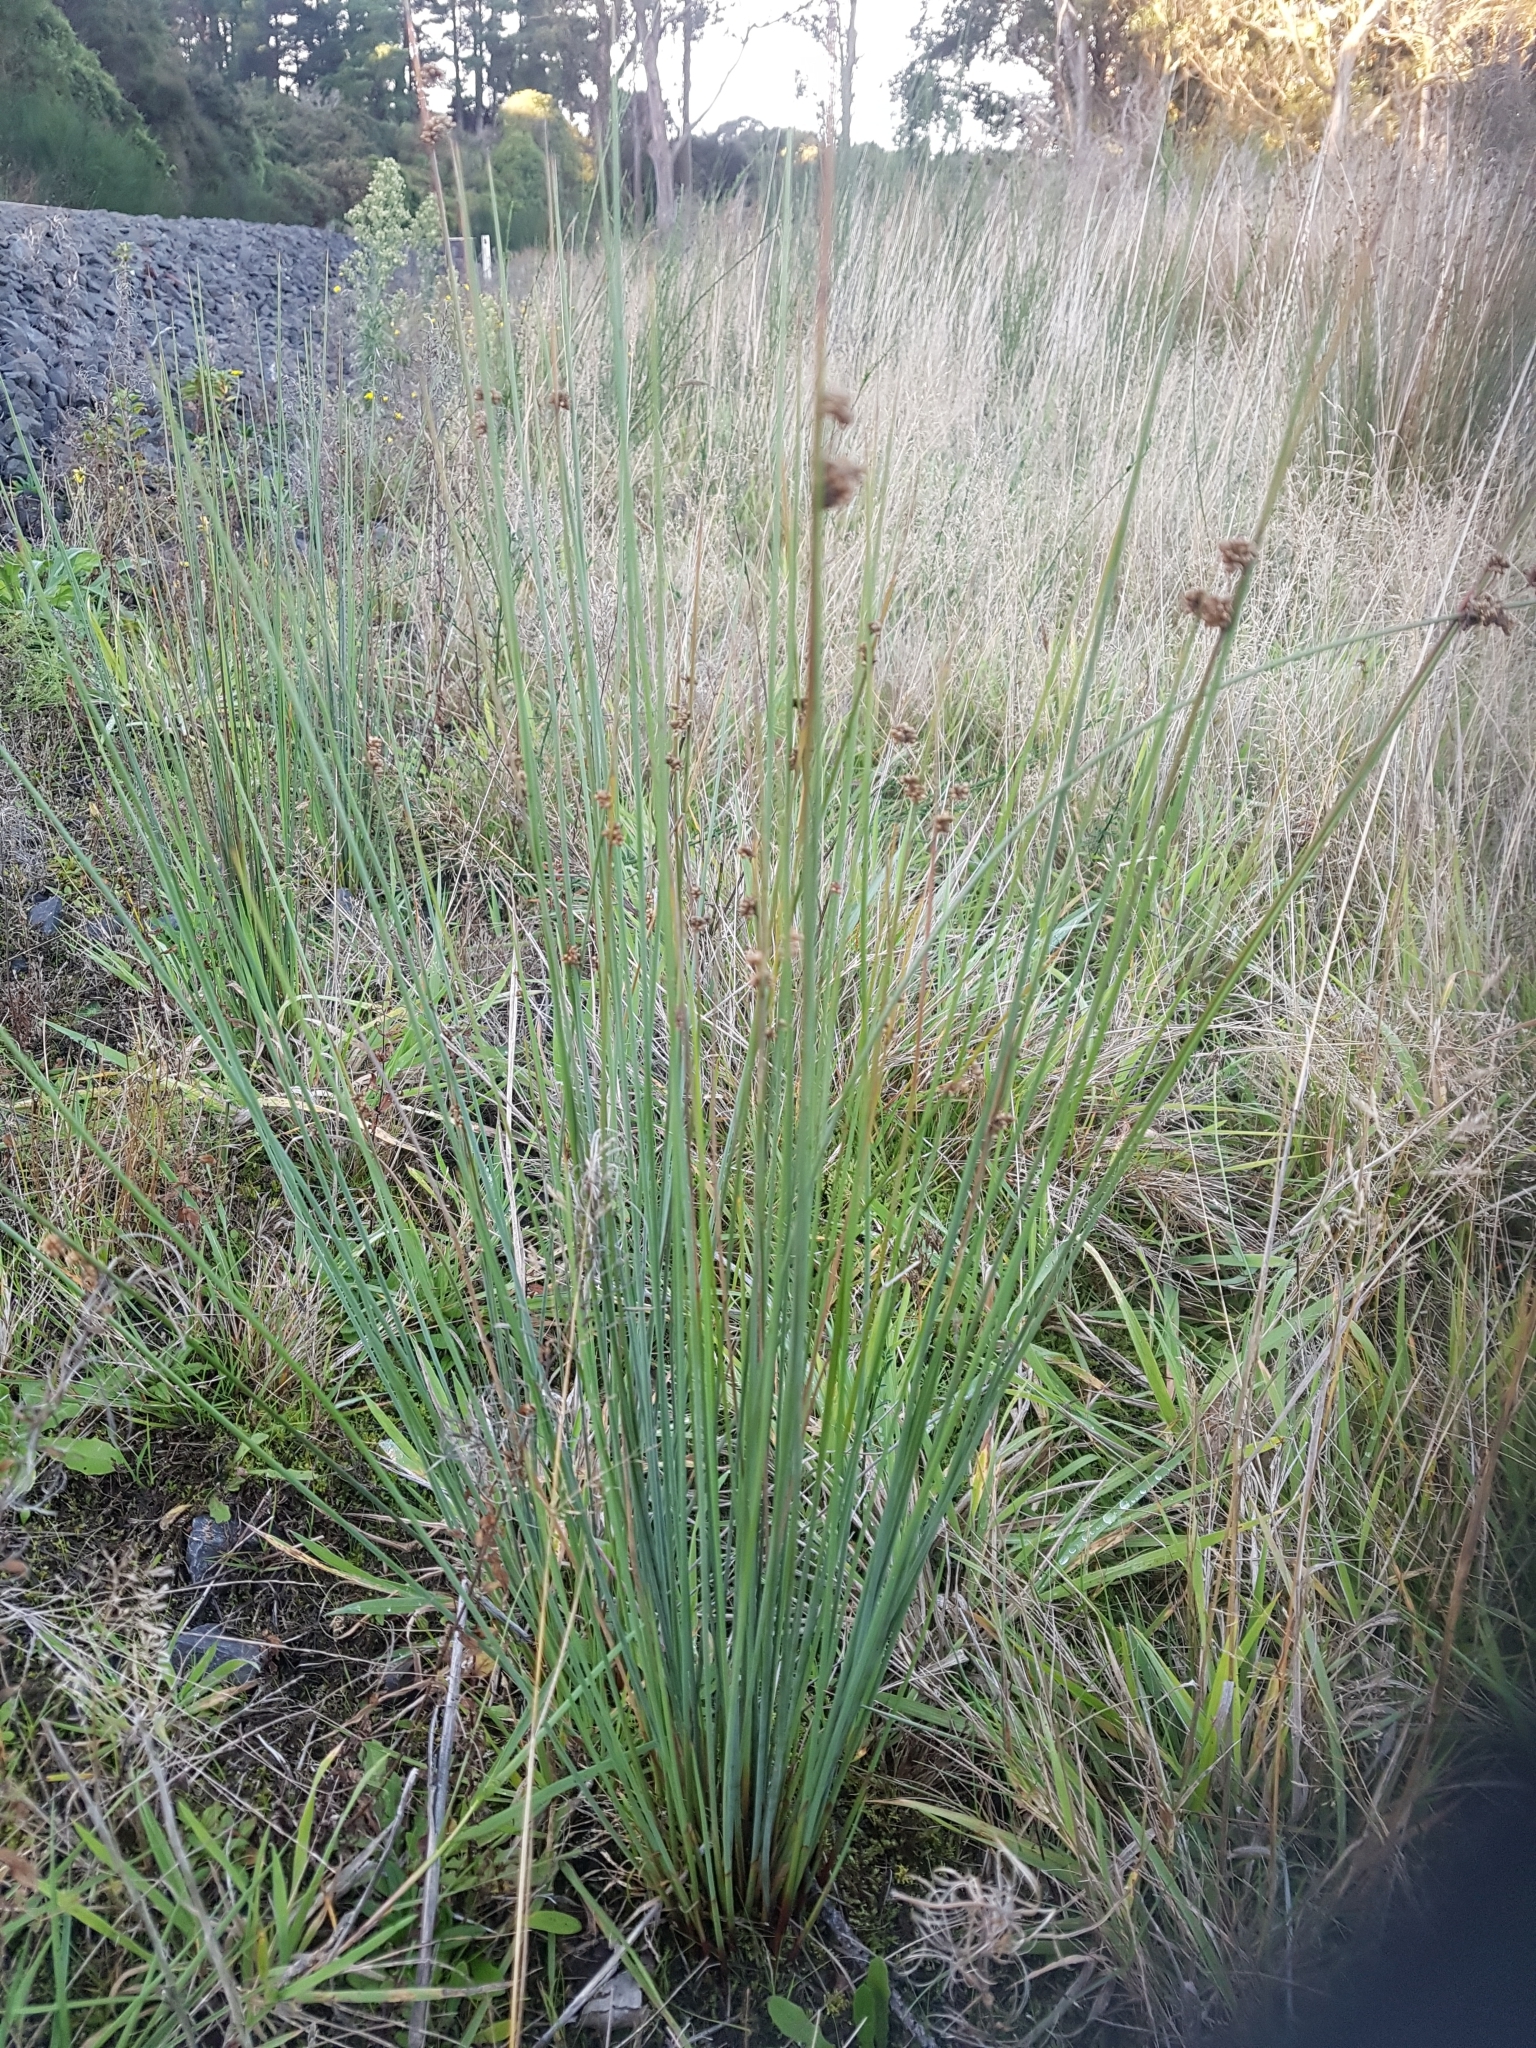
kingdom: Plantae
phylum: Tracheophyta
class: Liliopsida
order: Poales
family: Cyperaceae
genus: Ficinia
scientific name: Ficinia nodosa
